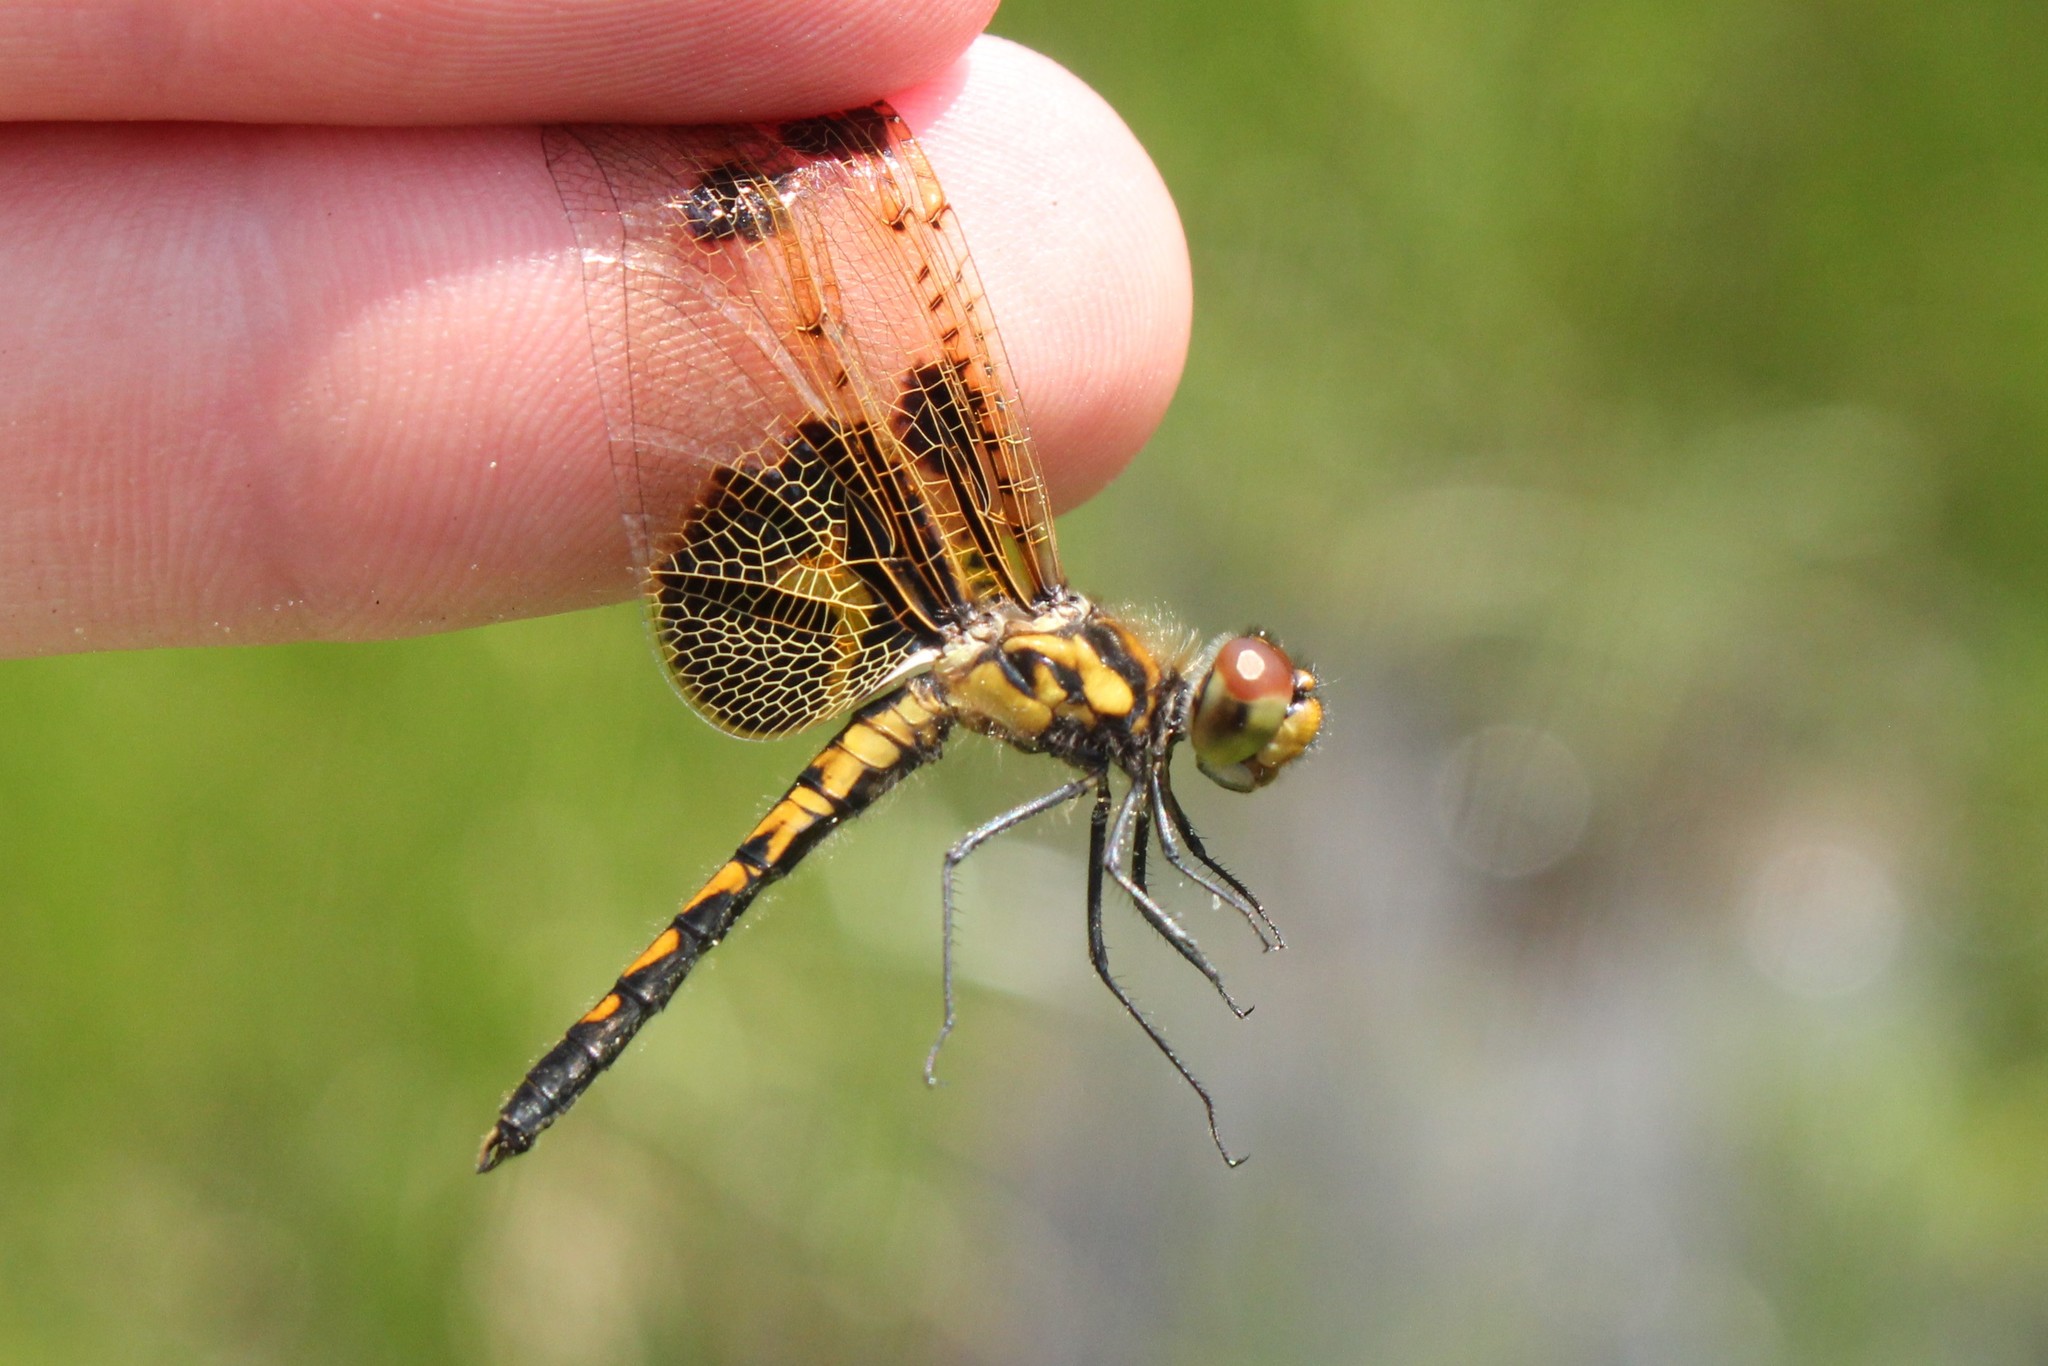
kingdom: Animalia
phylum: Arthropoda
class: Insecta
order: Odonata
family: Libellulidae
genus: Celithemis
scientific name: Celithemis elisa
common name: Calico pennant
